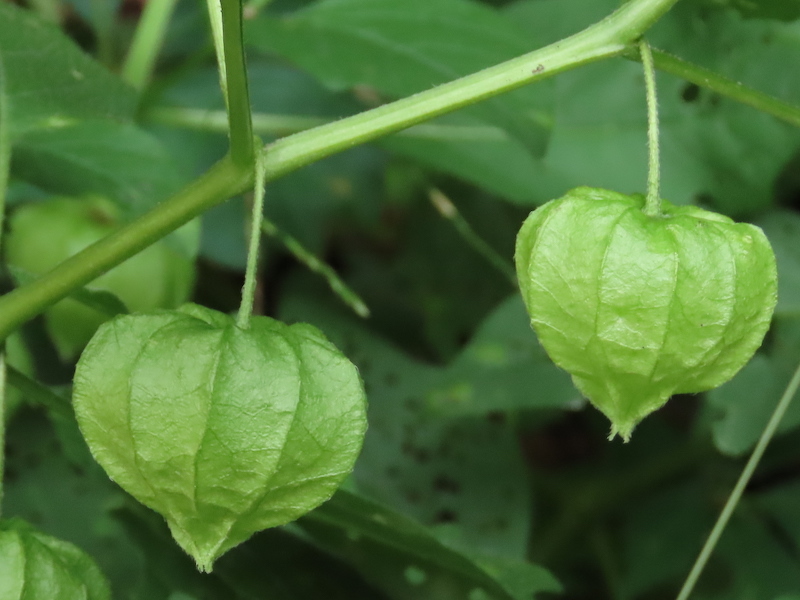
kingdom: Plantae
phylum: Tracheophyta
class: Magnoliopsida
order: Solanales
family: Solanaceae
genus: Physalis
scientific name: Physalis longifolia
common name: Common ground-cherry
